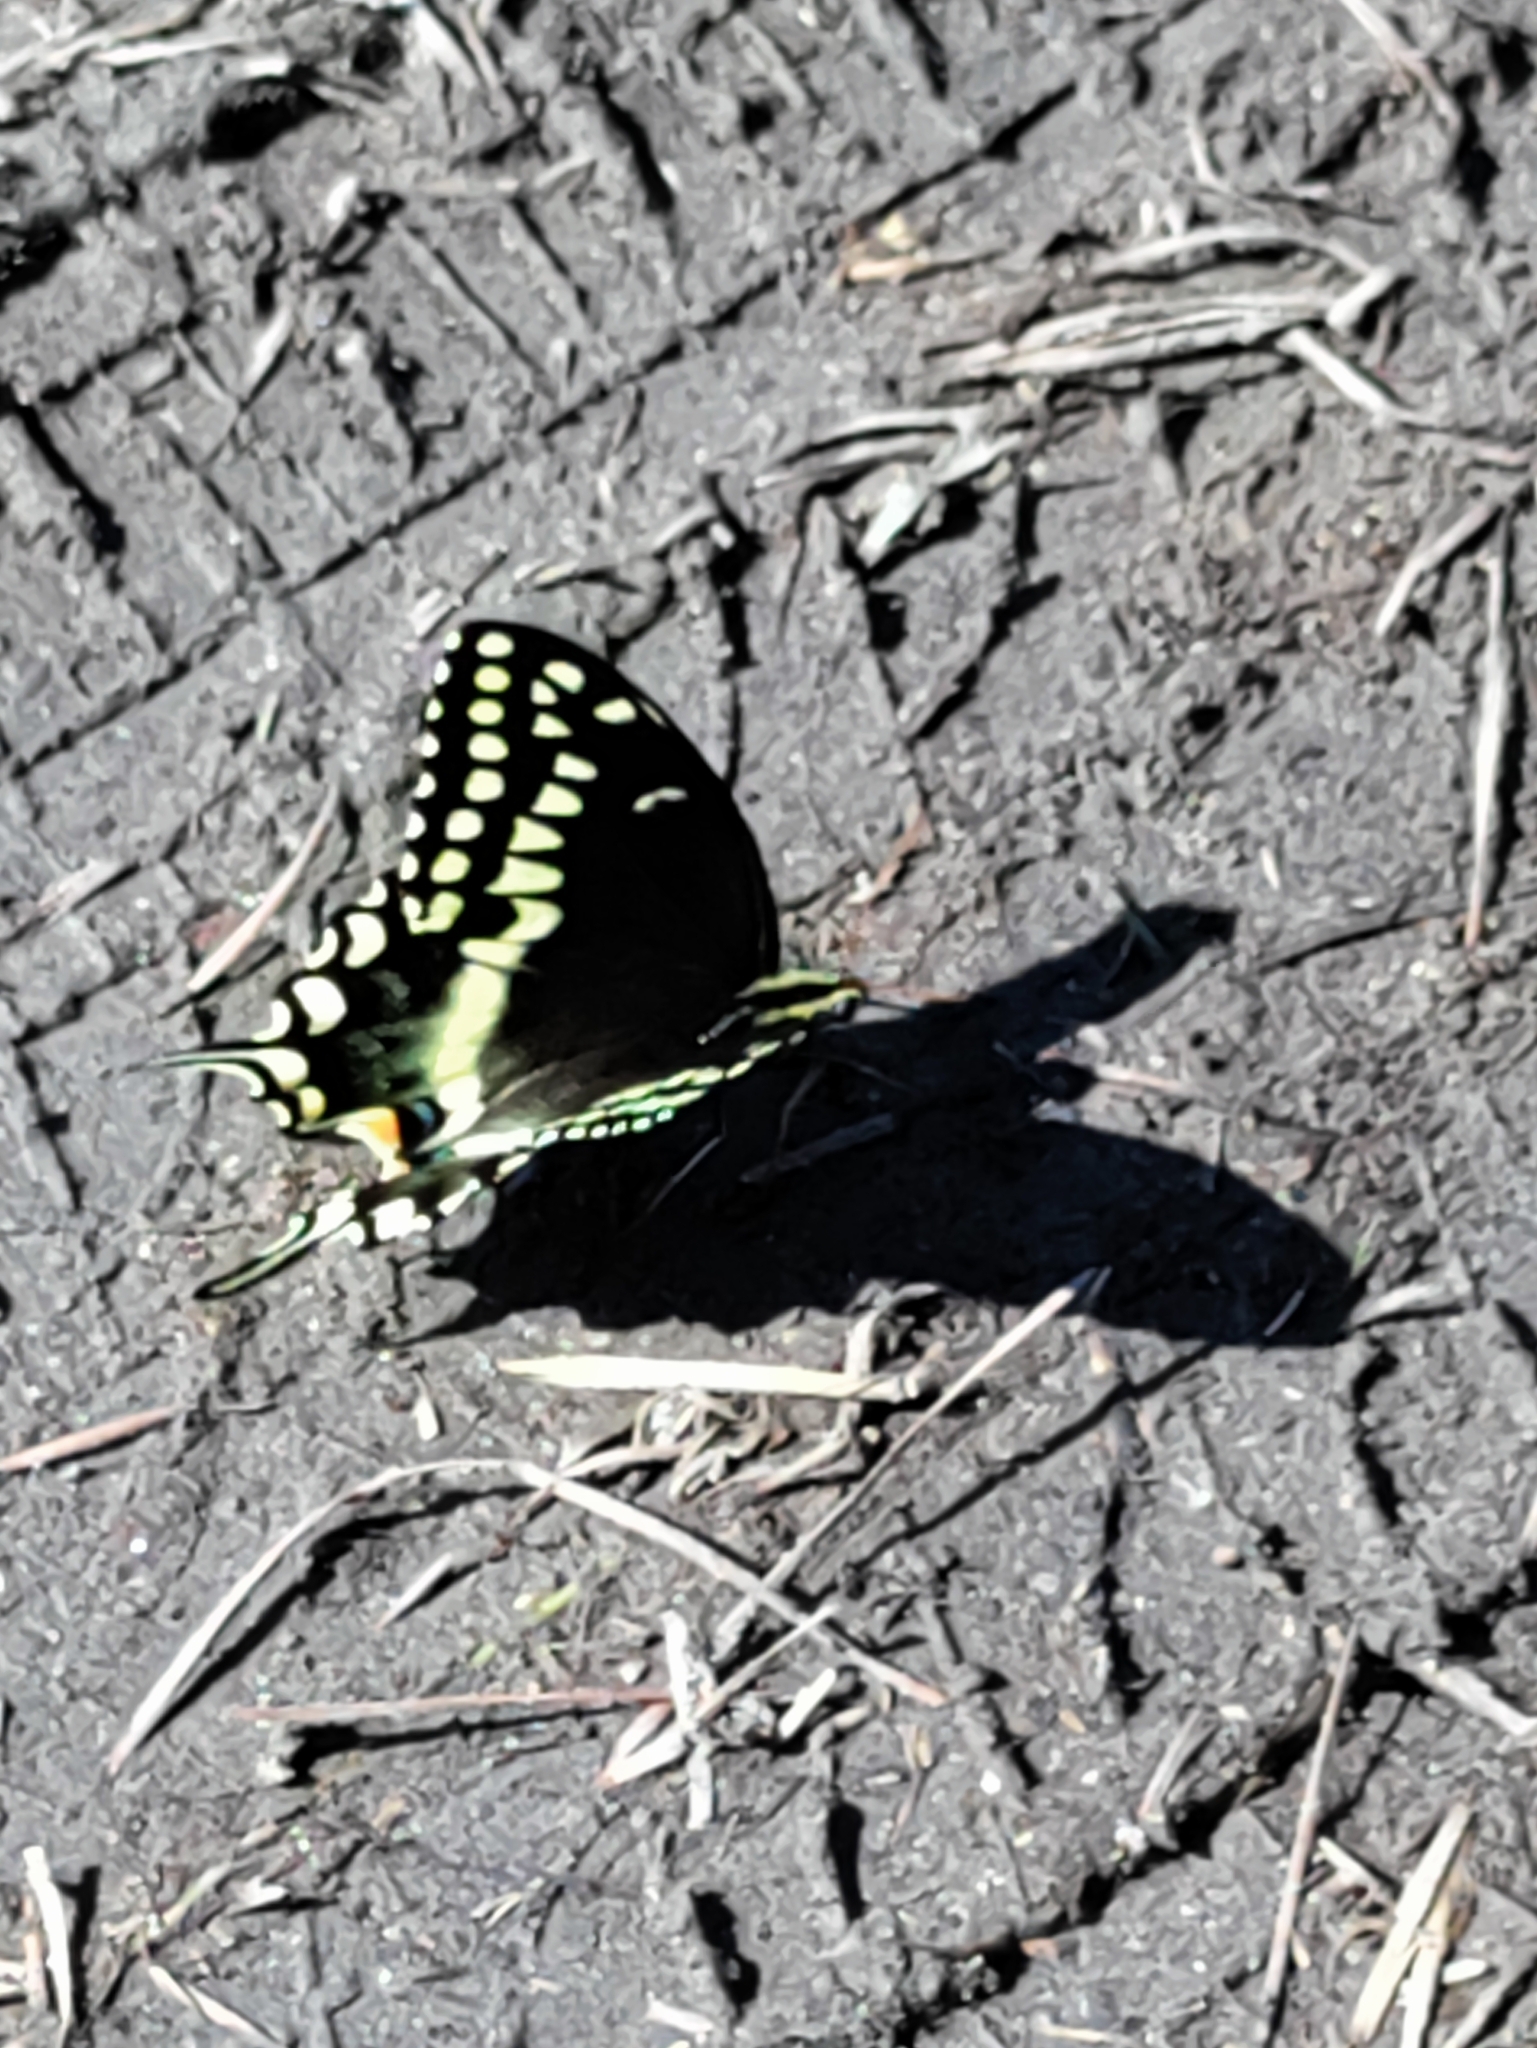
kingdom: Animalia
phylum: Arthropoda
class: Insecta
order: Lepidoptera
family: Papilionidae
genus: Papilio
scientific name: Papilio palamedes
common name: Palamedes swallowtail
